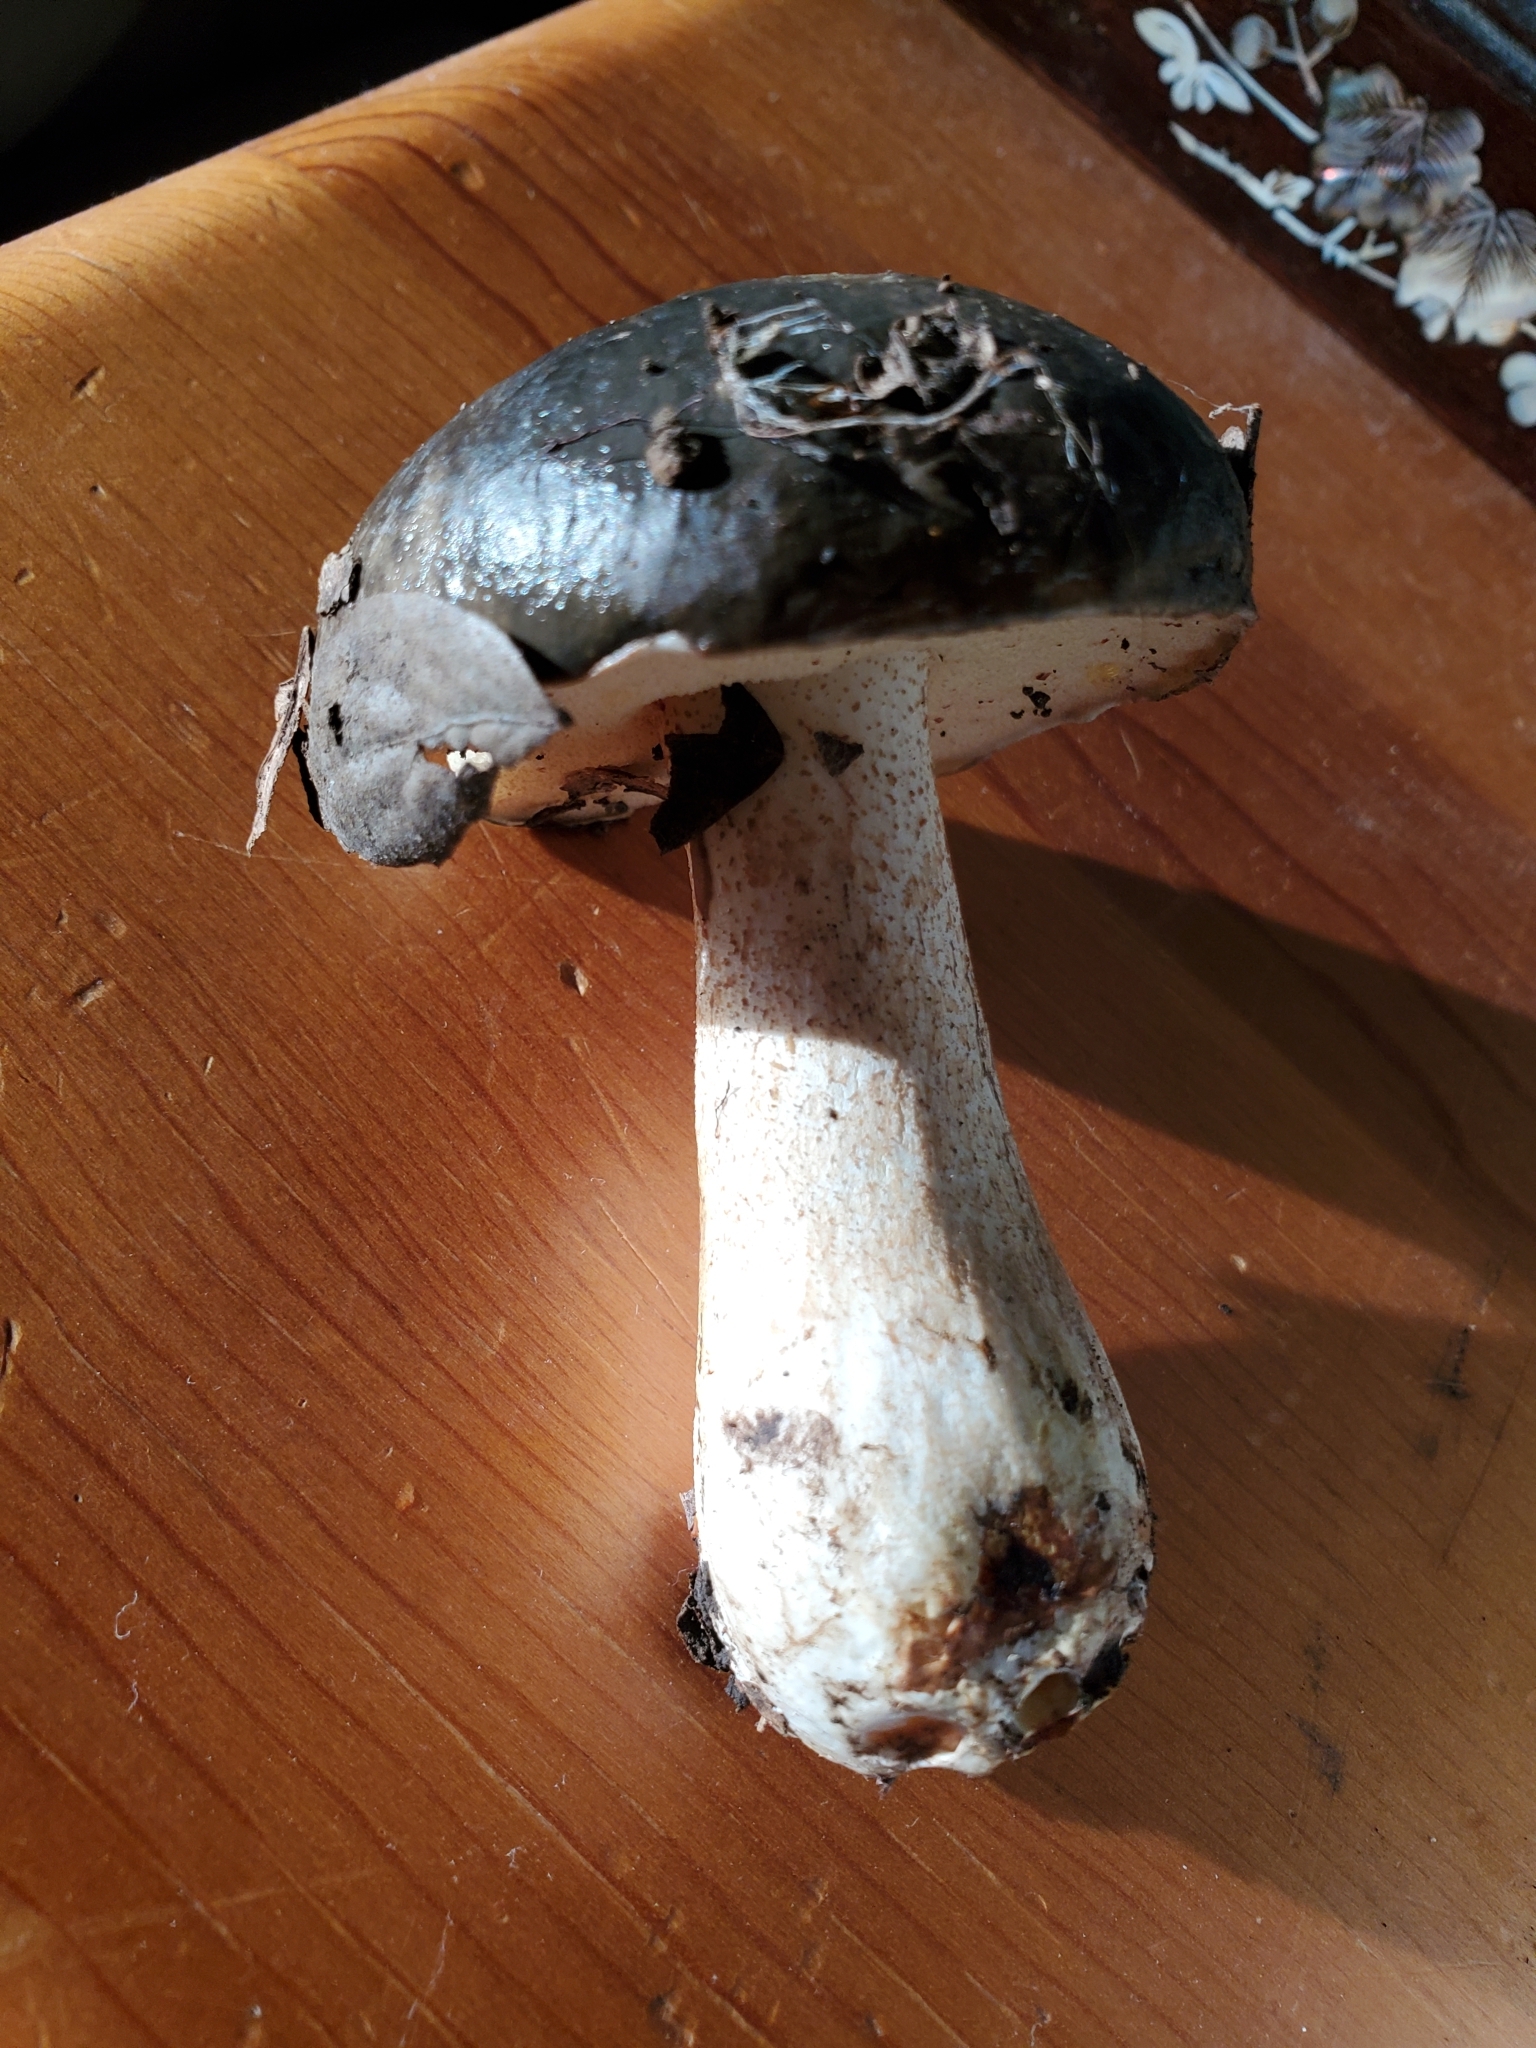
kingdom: Fungi
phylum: Basidiomycota
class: Agaricomycetes
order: Boletales
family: Suillaceae
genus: Suillus
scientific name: Suillus pungens
